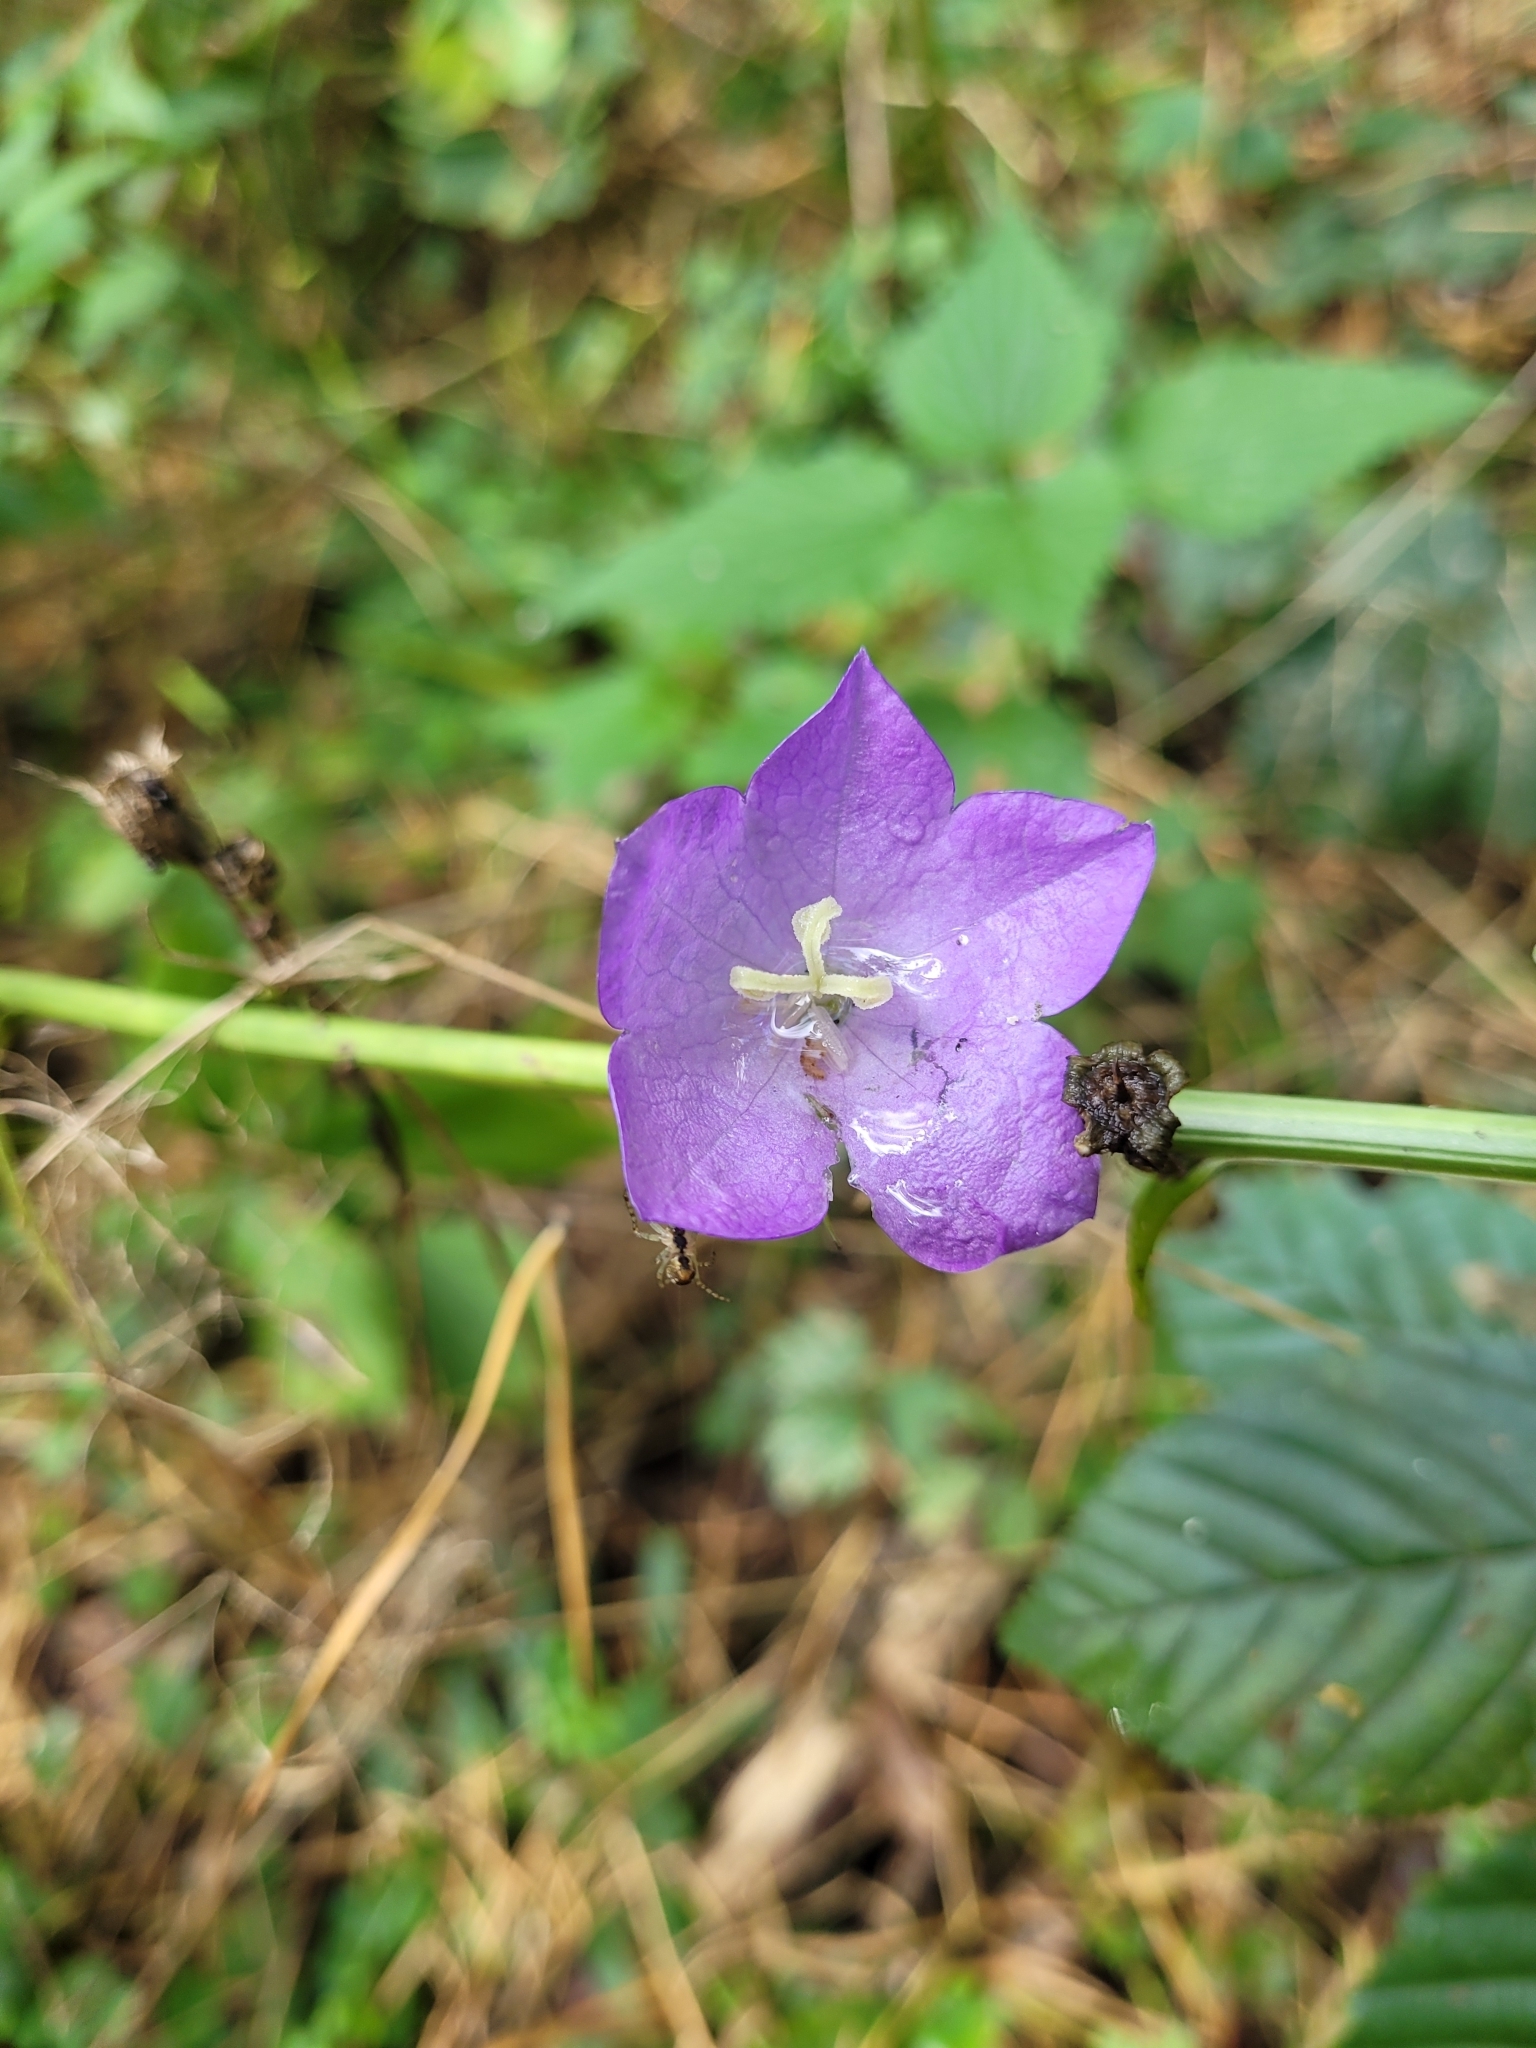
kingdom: Plantae
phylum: Tracheophyta
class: Magnoliopsida
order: Asterales
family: Campanulaceae
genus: Campanula
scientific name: Campanula persicifolia
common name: Peach-leaved bellflower
